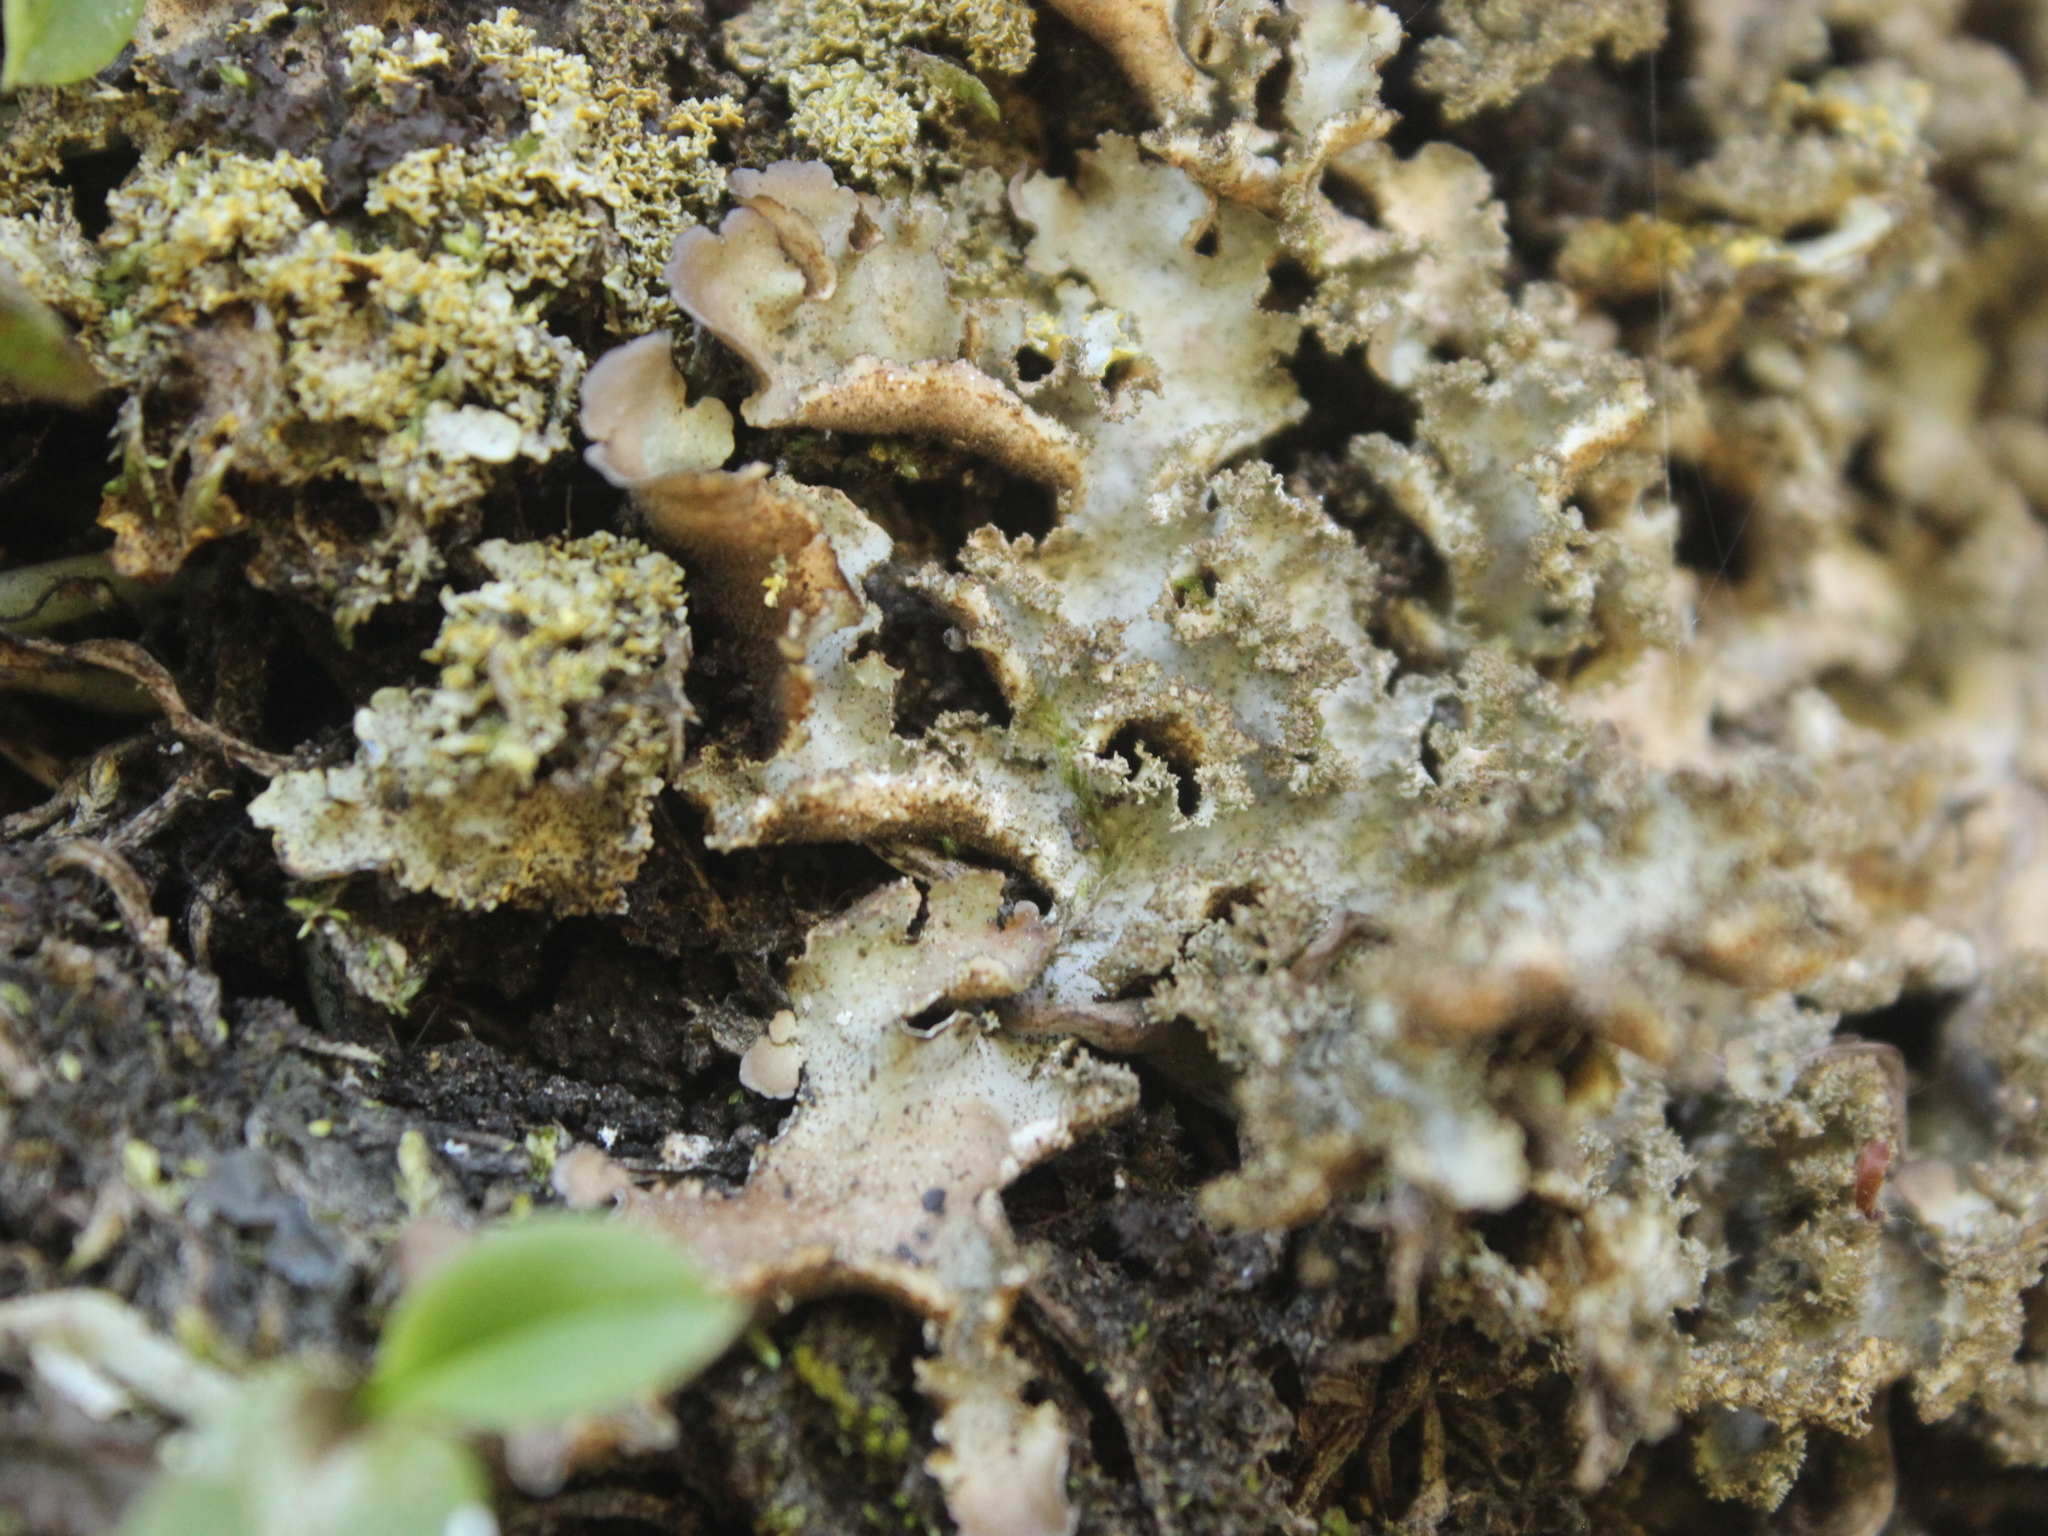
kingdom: Fungi
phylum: Ascomycota
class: Lecanoromycetes
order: Peltigerales
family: Lobariaceae
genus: Pseudocyphellaria
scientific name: Pseudocyphellaria episticta
